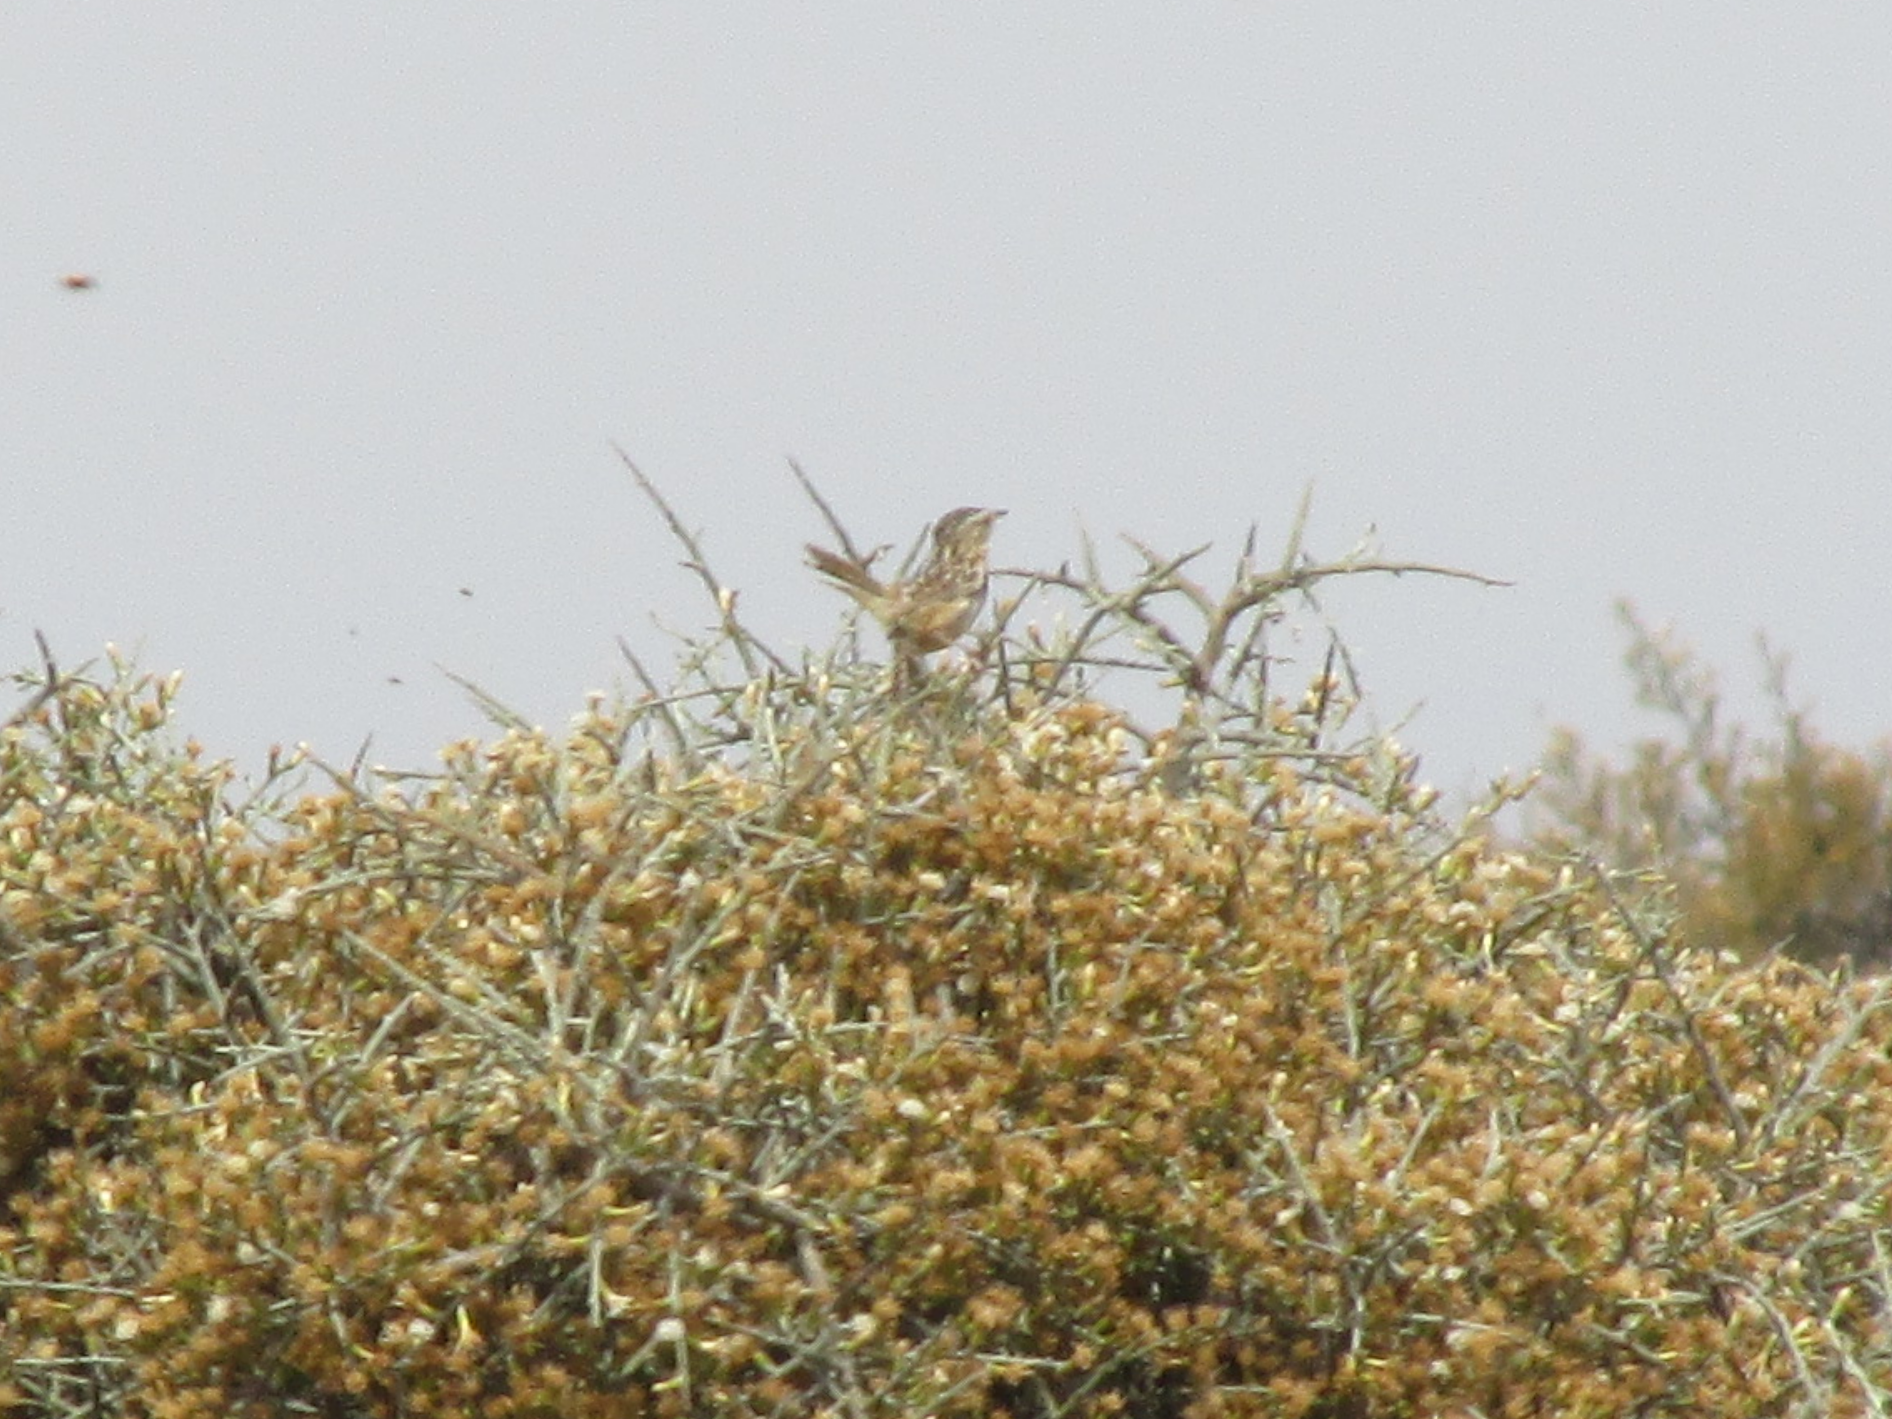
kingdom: Animalia
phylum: Chordata
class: Aves
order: Passeriformes
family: Troglodytidae
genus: Cistothorus
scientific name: Cistothorus platensis
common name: Sedge wren
